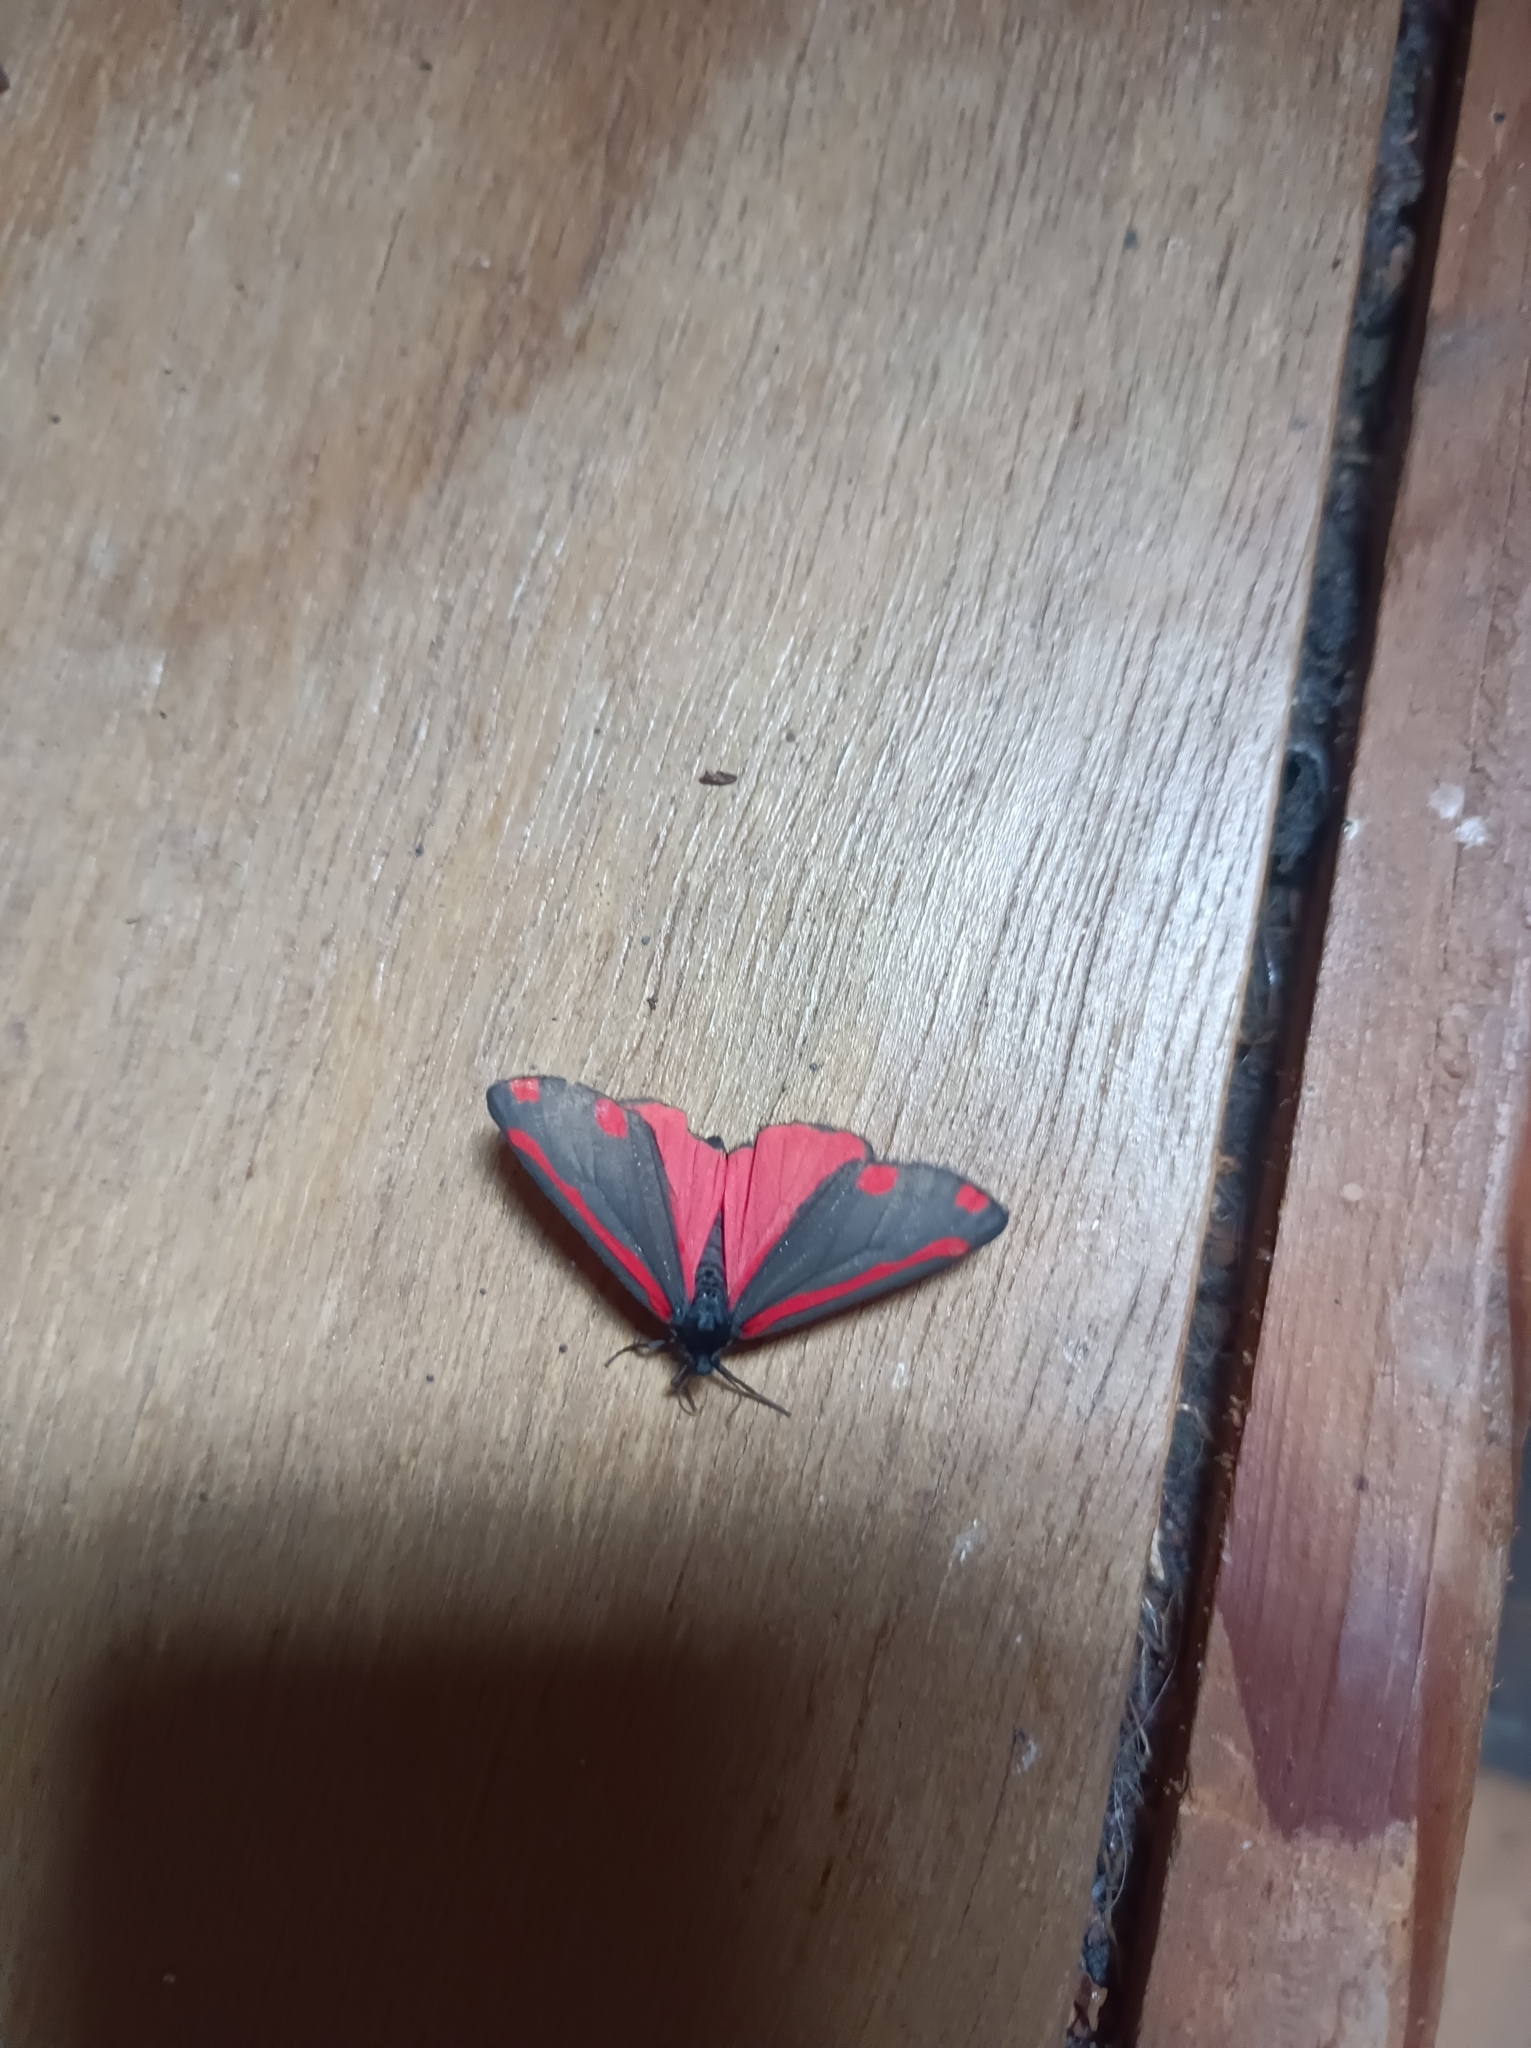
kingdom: Animalia
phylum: Arthropoda
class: Insecta
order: Lepidoptera
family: Erebidae
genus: Tyria
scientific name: Tyria jacobaeae
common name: Cinnabar
